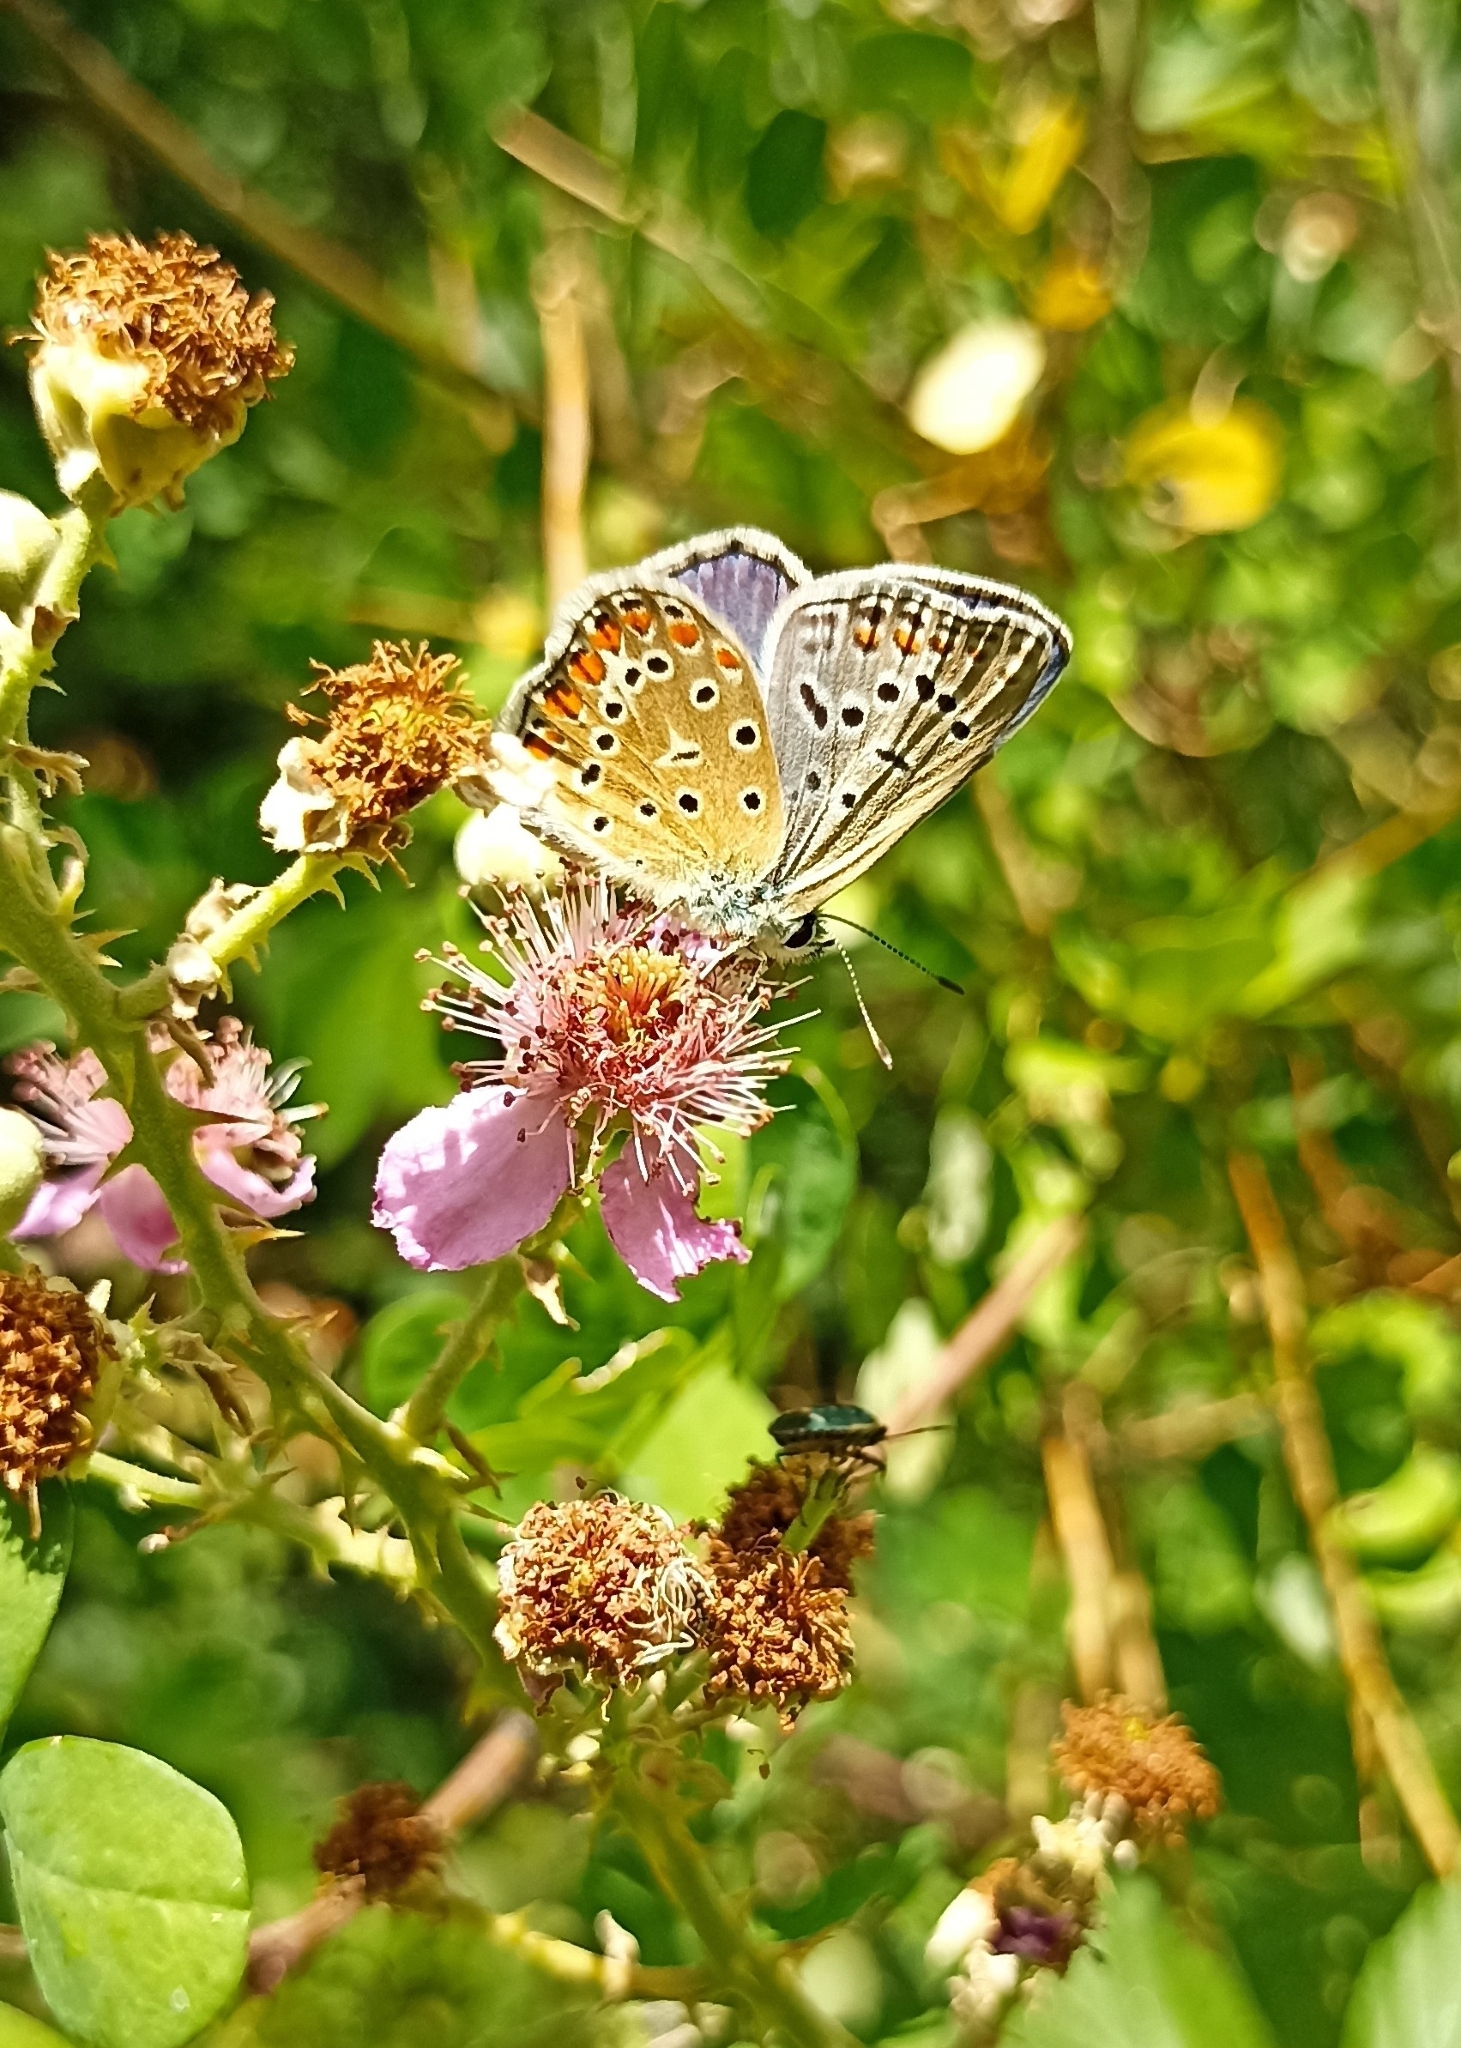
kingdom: Animalia
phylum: Arthropoda
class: Insecta
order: Lepidoptera
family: Lycaenidae
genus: Polyommatus
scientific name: Polyommatus icarus
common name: Common blue
